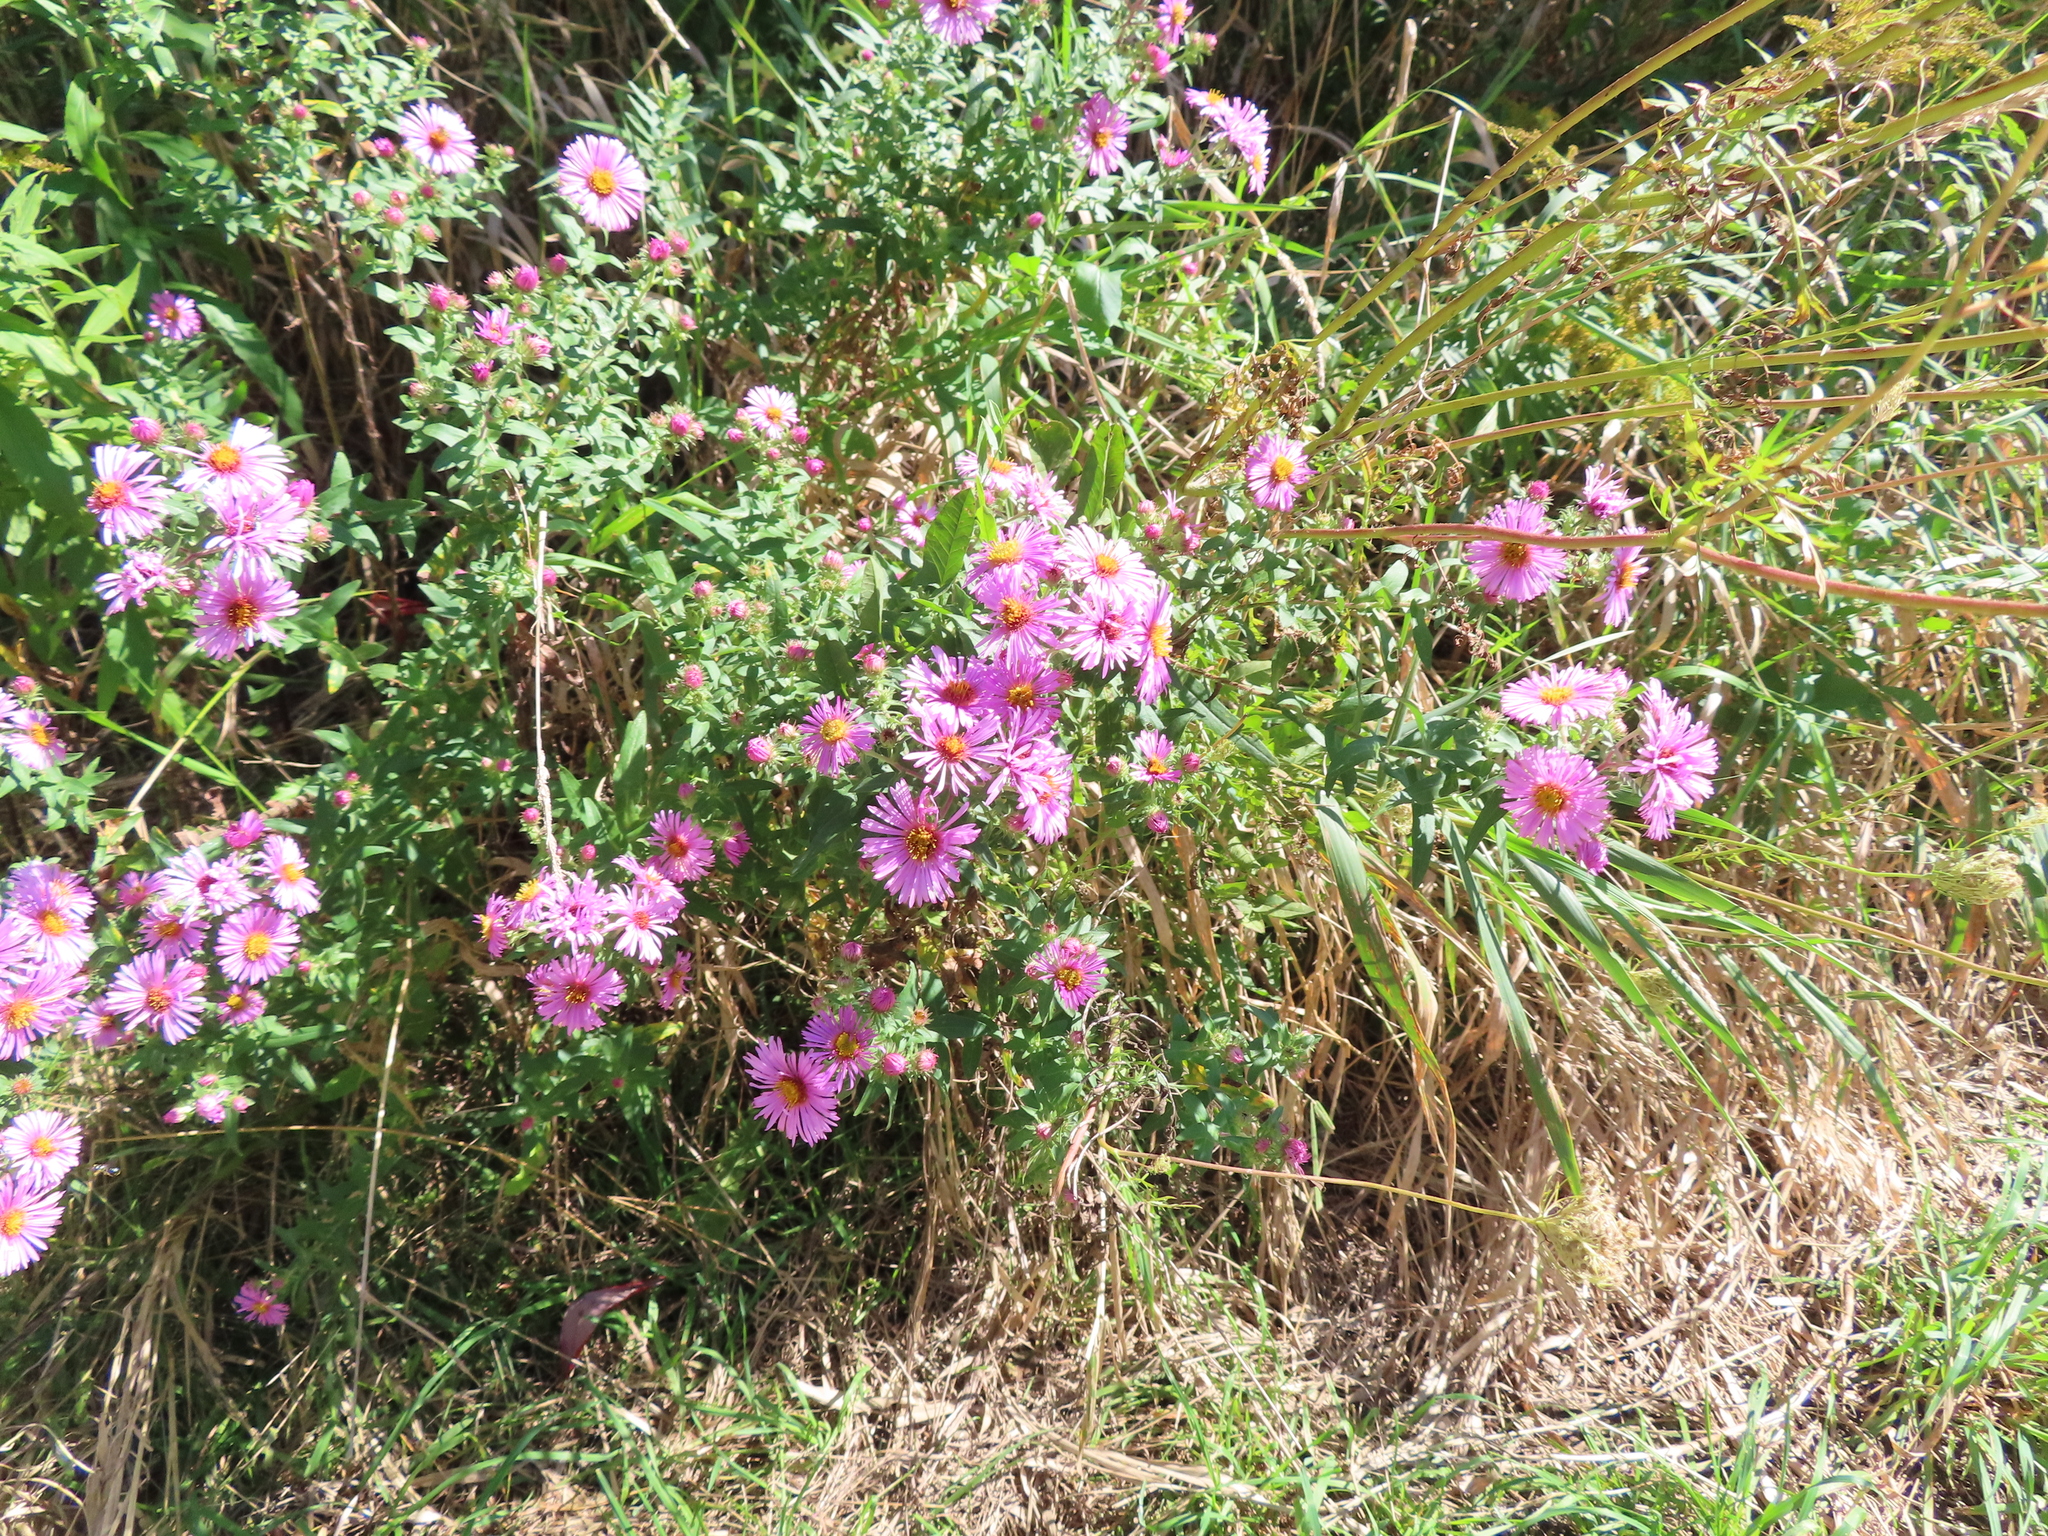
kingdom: Plantae
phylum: Tracheophyta
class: Magnoliopsida
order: Asterales
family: Asteraceae
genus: Symphyotrichum
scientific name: Symphyotrichum novae-angliae
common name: Michaelmas daisy
